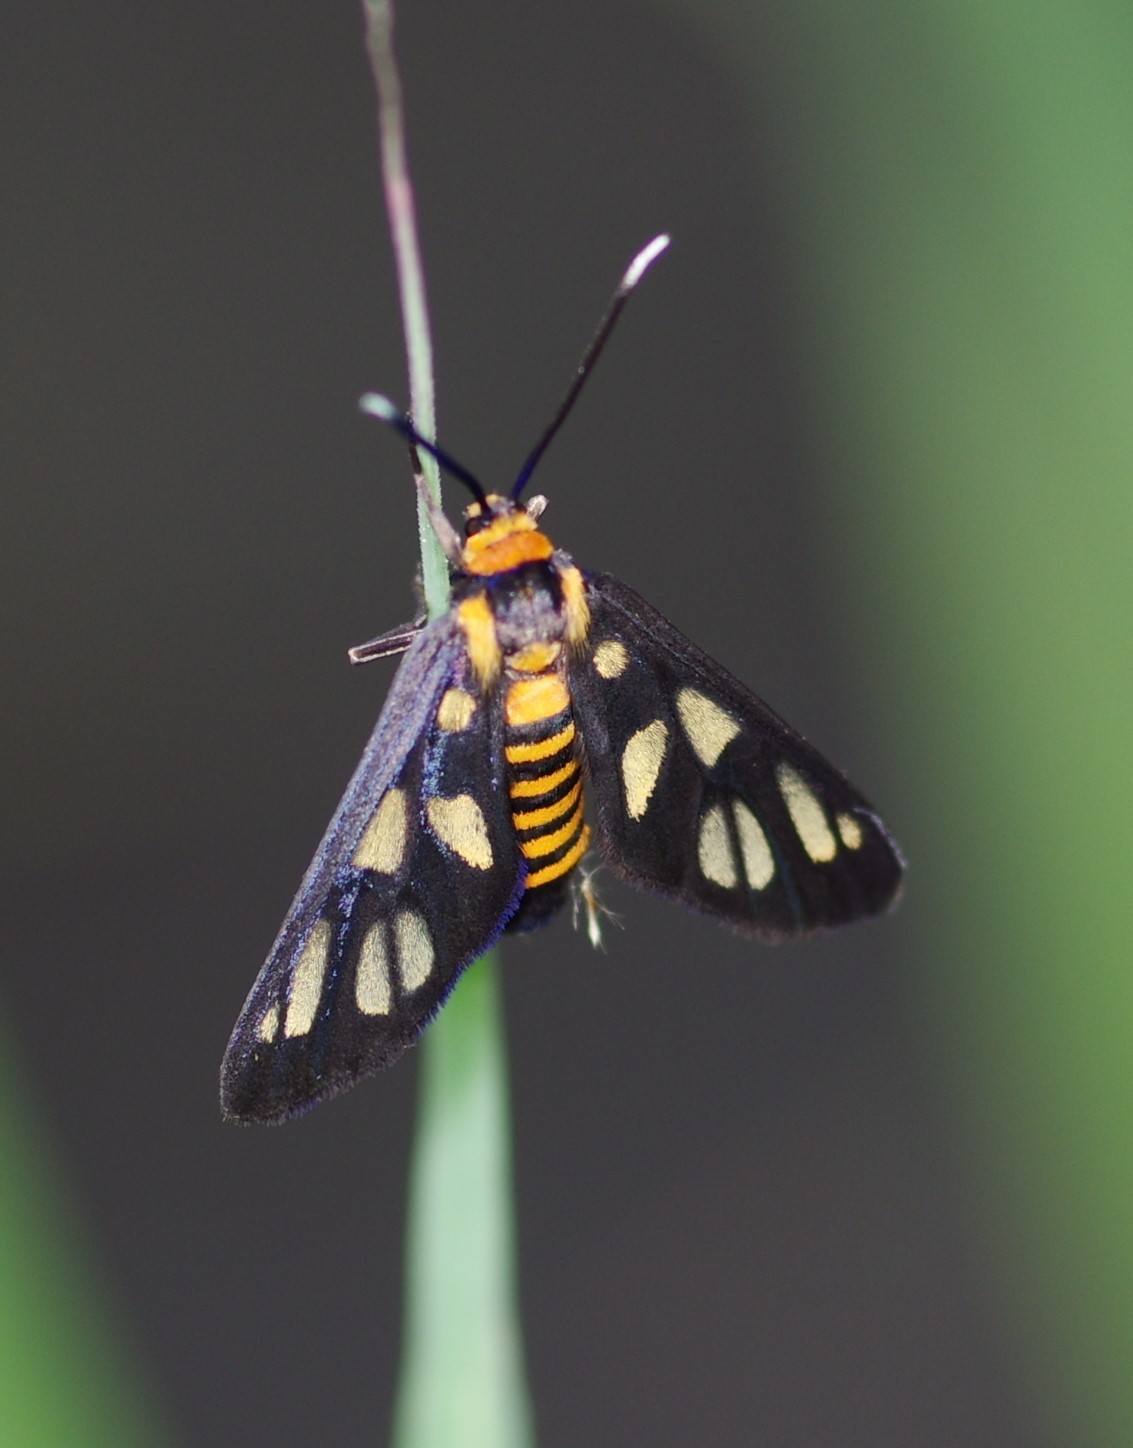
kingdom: Animalia
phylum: Arthropoda
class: Insecta
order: Lepidoptera
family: Erebidae
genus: Amata
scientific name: Amata huebneri
